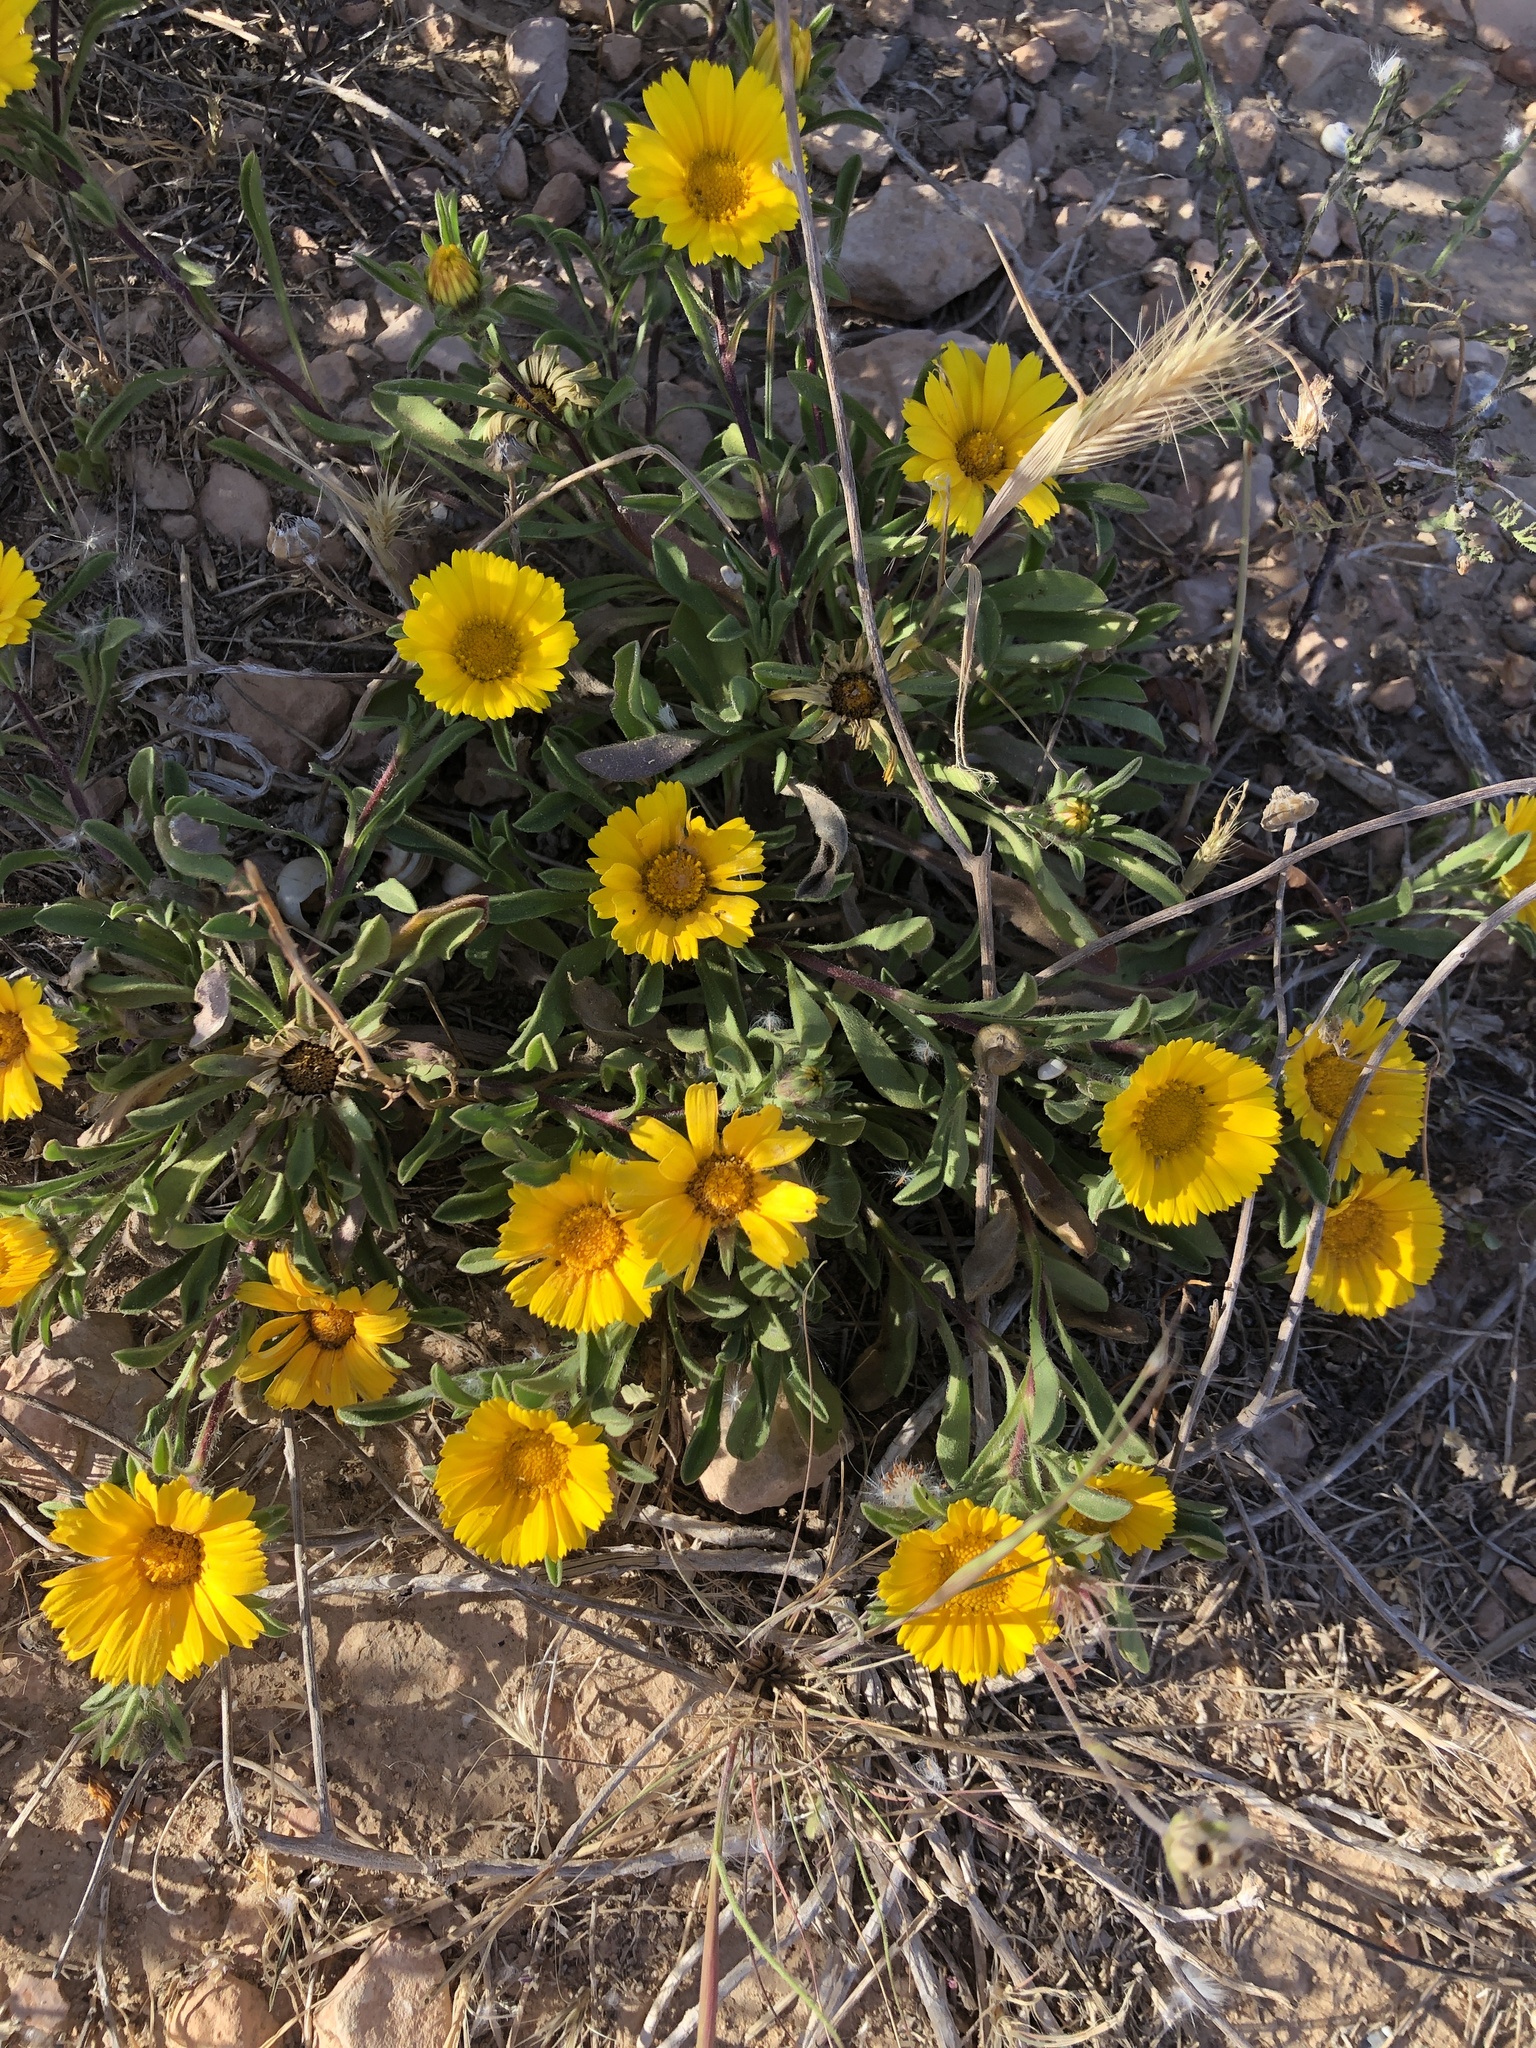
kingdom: Plantae
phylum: Tracheophyta
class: Magnoliopsida
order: Asterales
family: Asteraceae
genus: Pallenis
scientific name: Pallenis maritima
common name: Golden coin daisy
